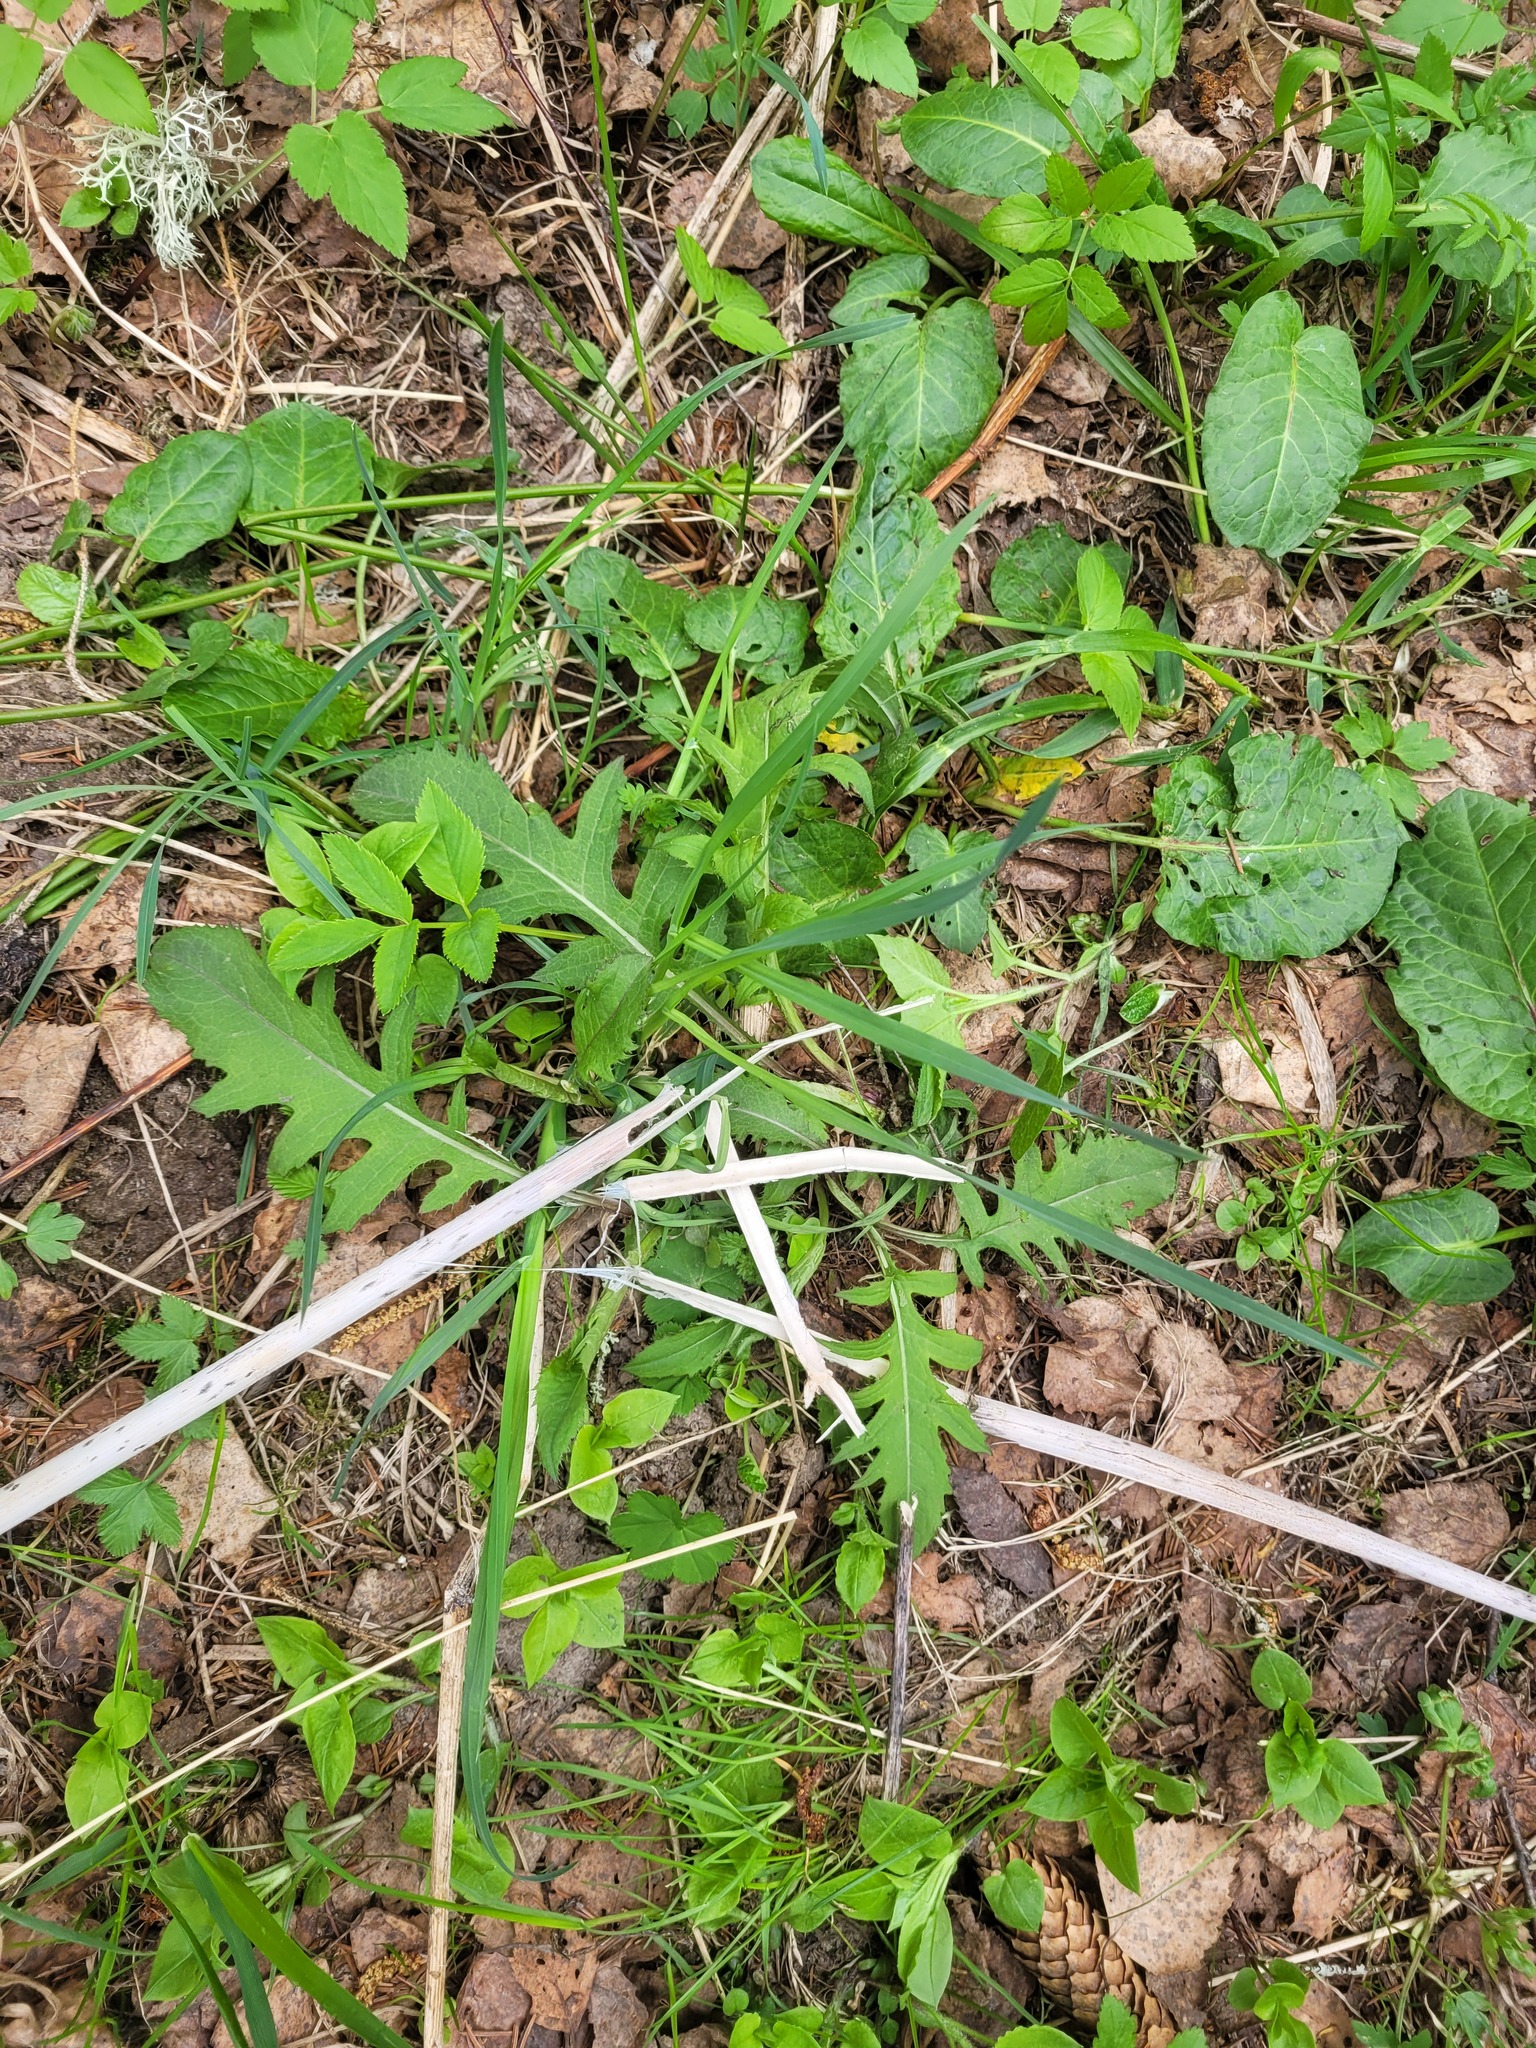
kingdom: Plantae
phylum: Tracheophyta
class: Magnoliopsida
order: Asterales
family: Asteraceae
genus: Cirsium
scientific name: Cirsium oleraceum
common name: Cabbage thistle
